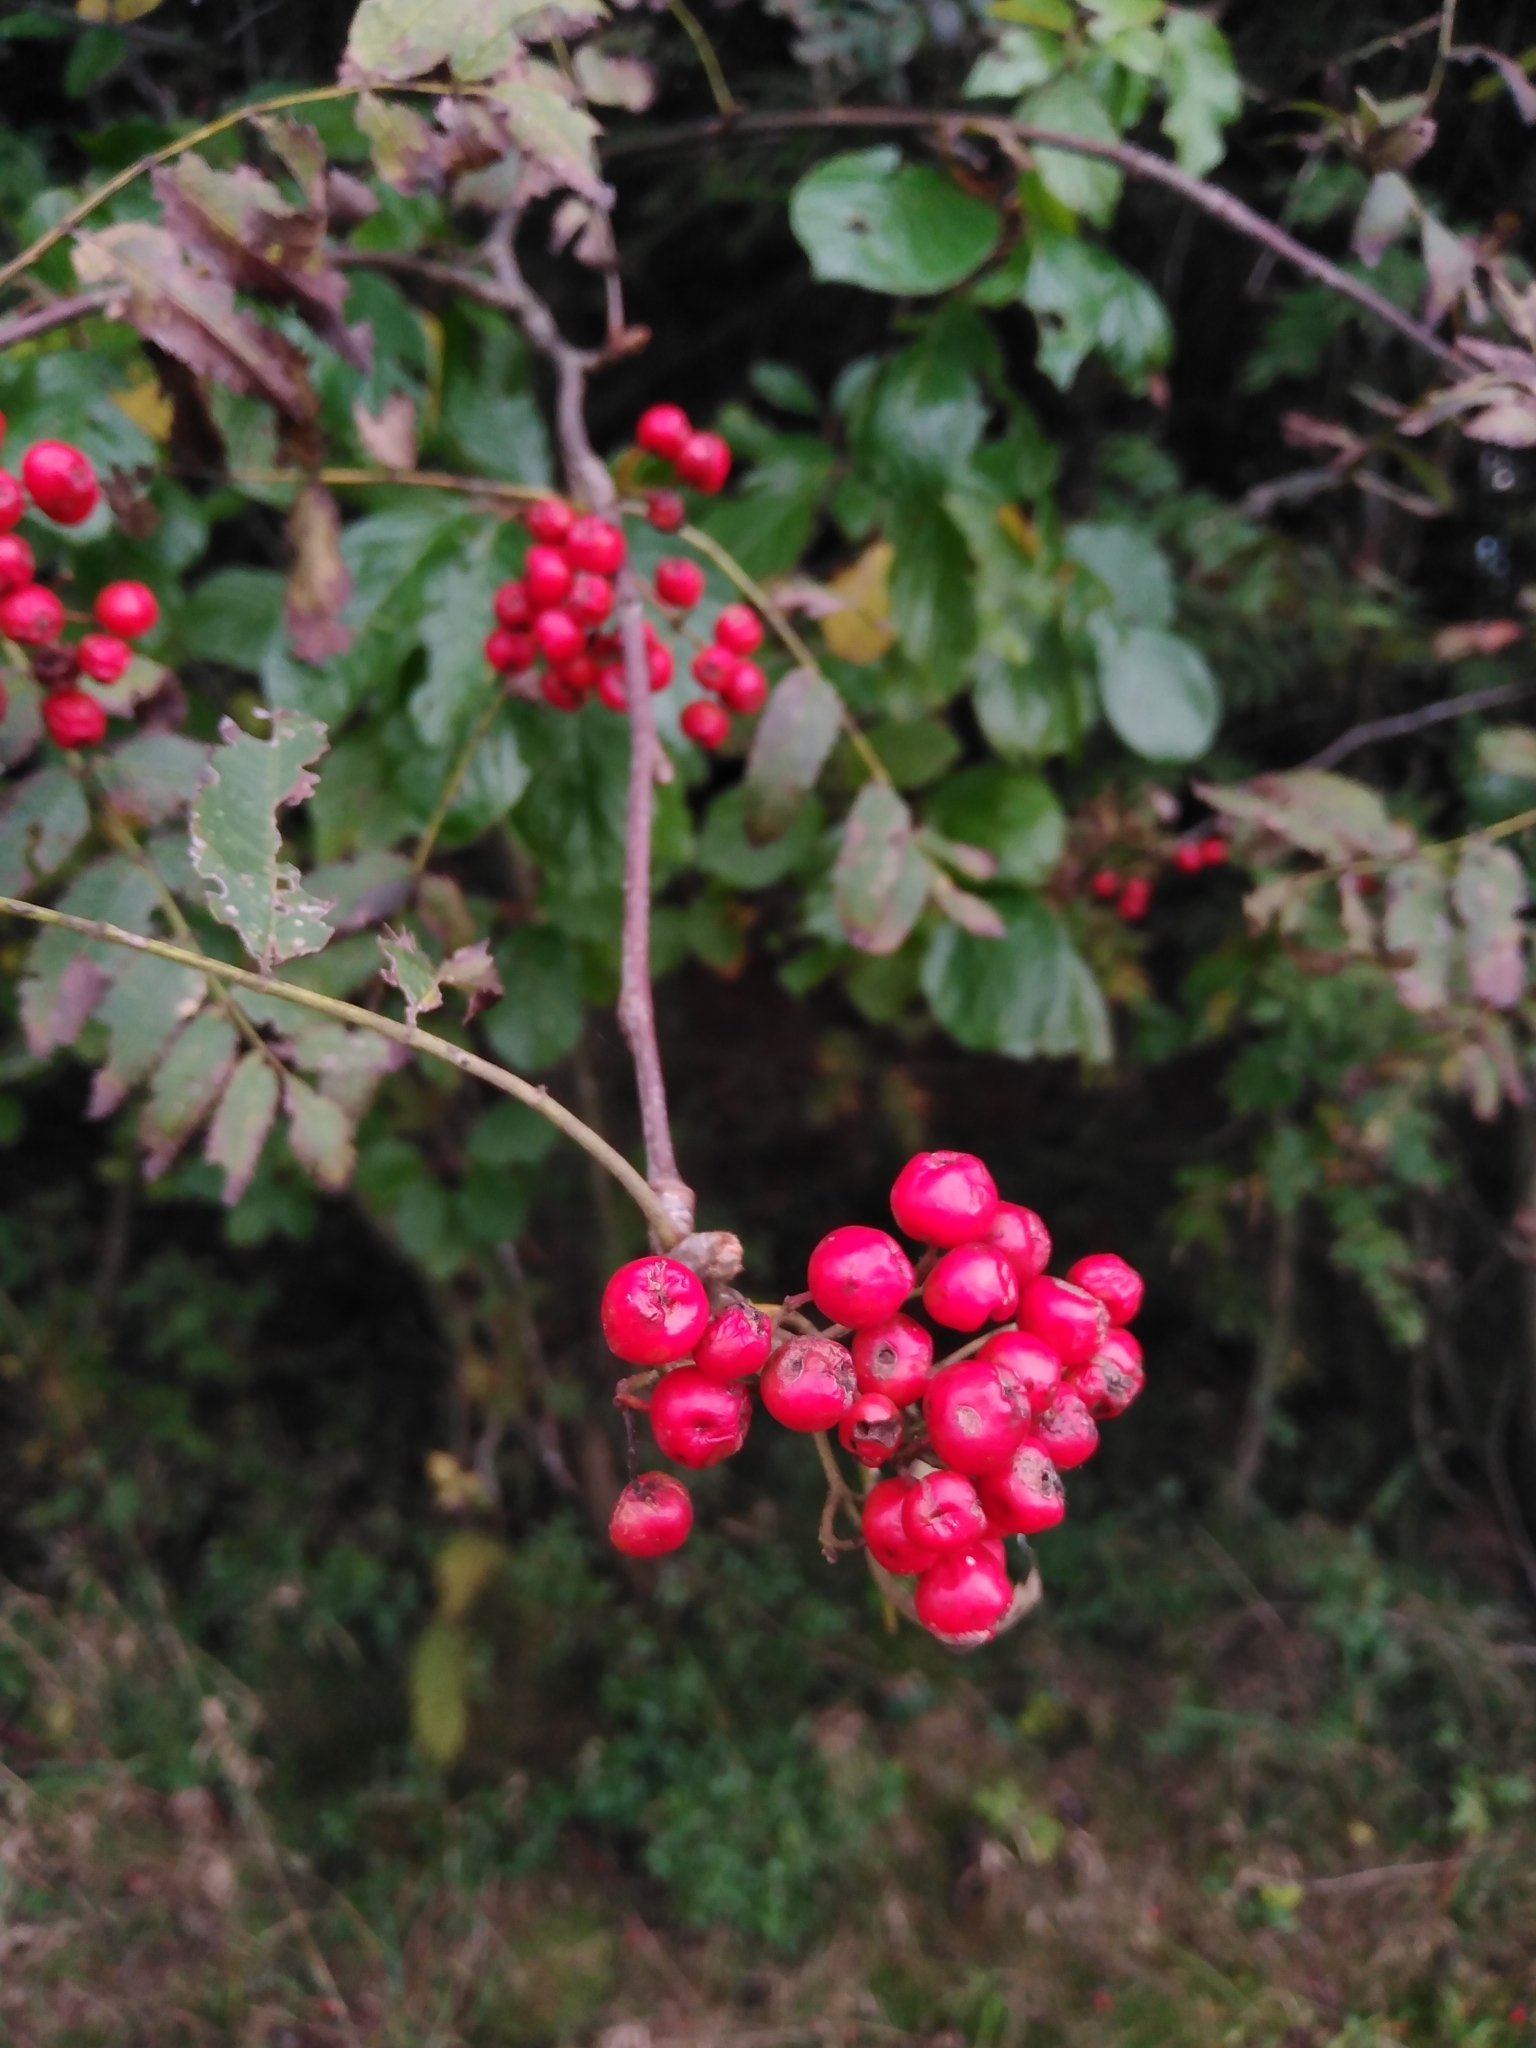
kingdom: Plantae
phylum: Tracheophyta
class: Magnoliopsida
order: Rosales
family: Rosaceae
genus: Sorbus
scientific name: Sorbus aucuparia
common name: Rowan
